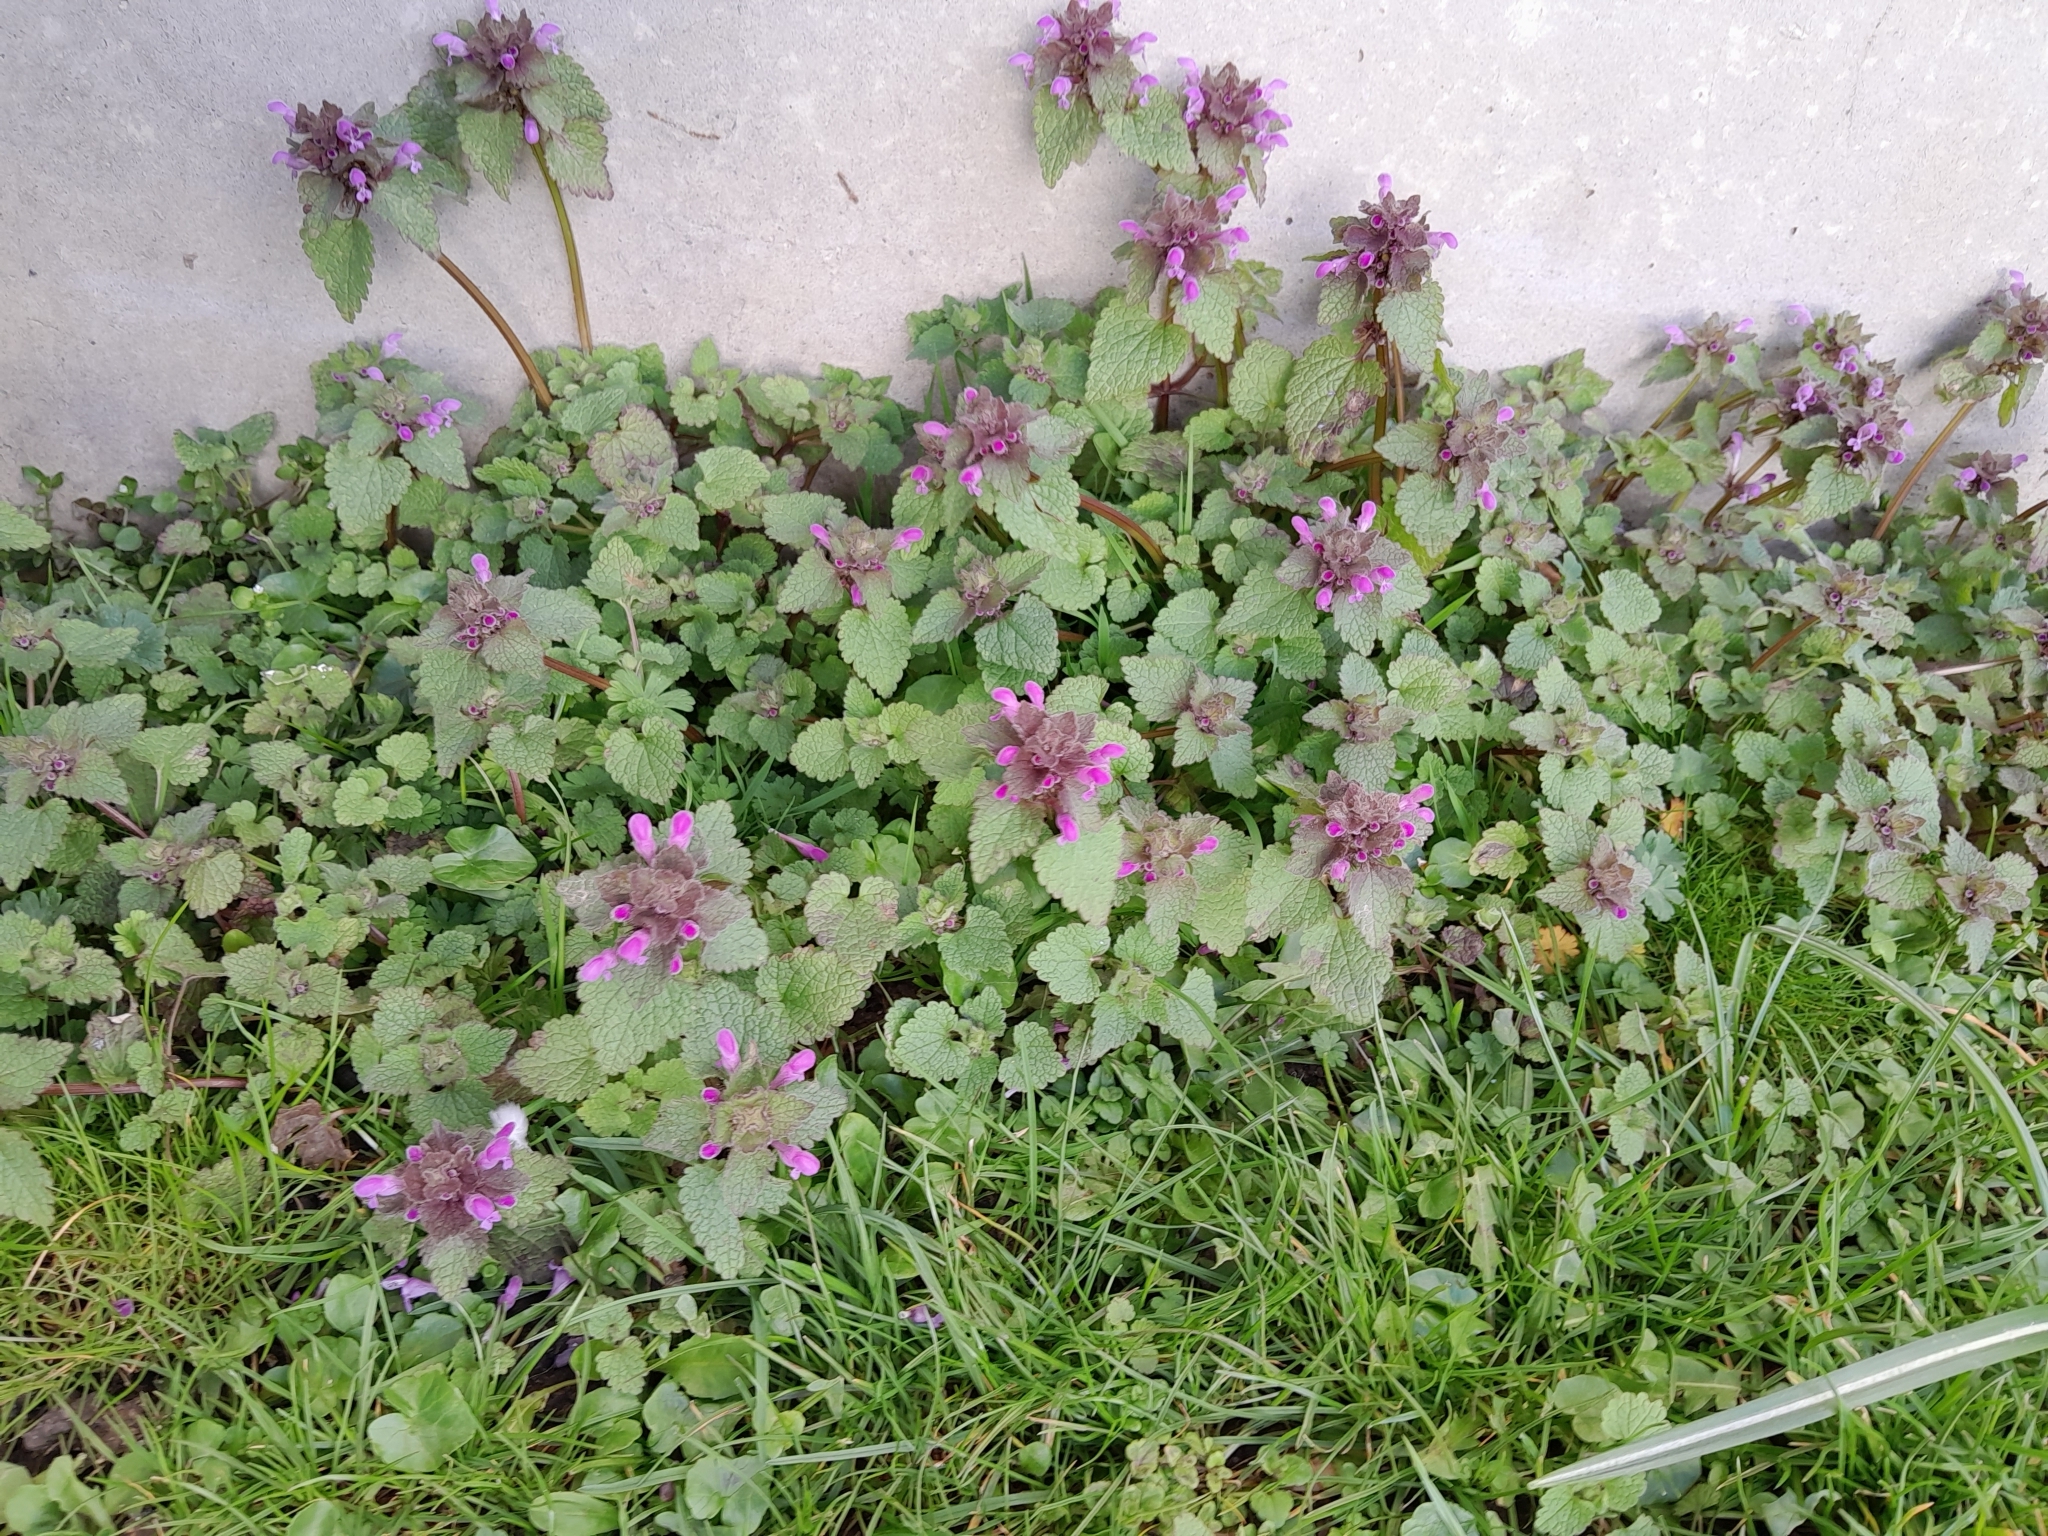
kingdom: Plantae
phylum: Tracheophyta
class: Magnoliopsida
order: Lamiales
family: Lamiaceae
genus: Lamium
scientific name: Lamium purpureum
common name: Red dead-nettle
